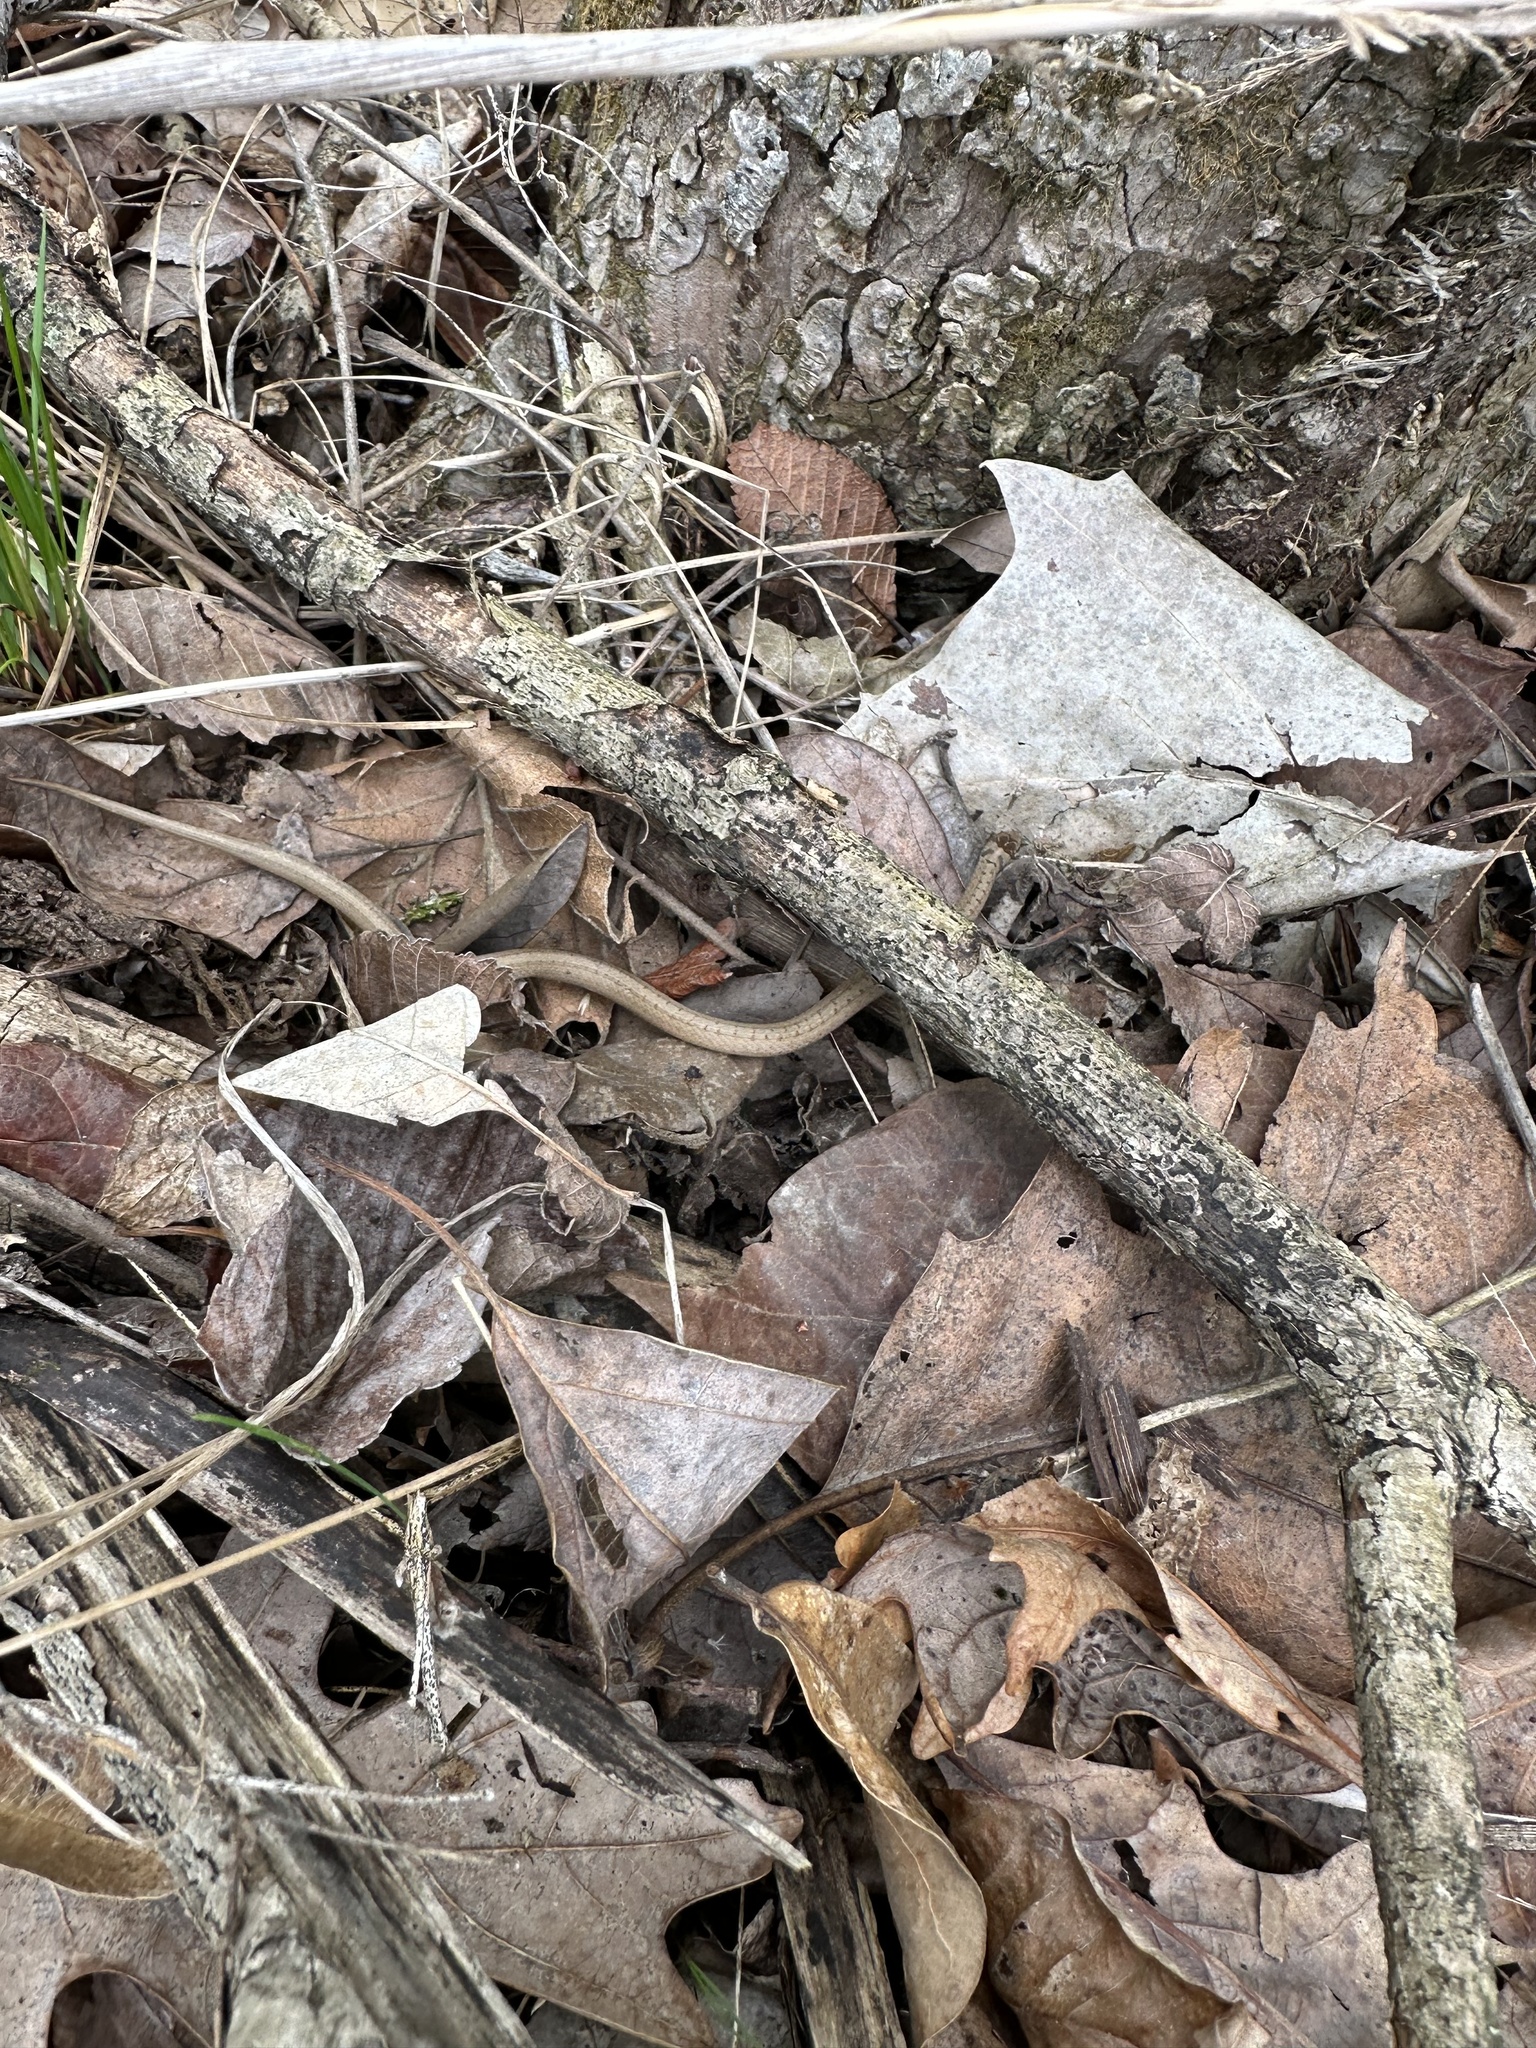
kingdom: Animalia
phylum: Chordata
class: Squamata
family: Colubridae
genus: Storeria
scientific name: Storeria dekayi
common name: (dekay’s) brown snake
